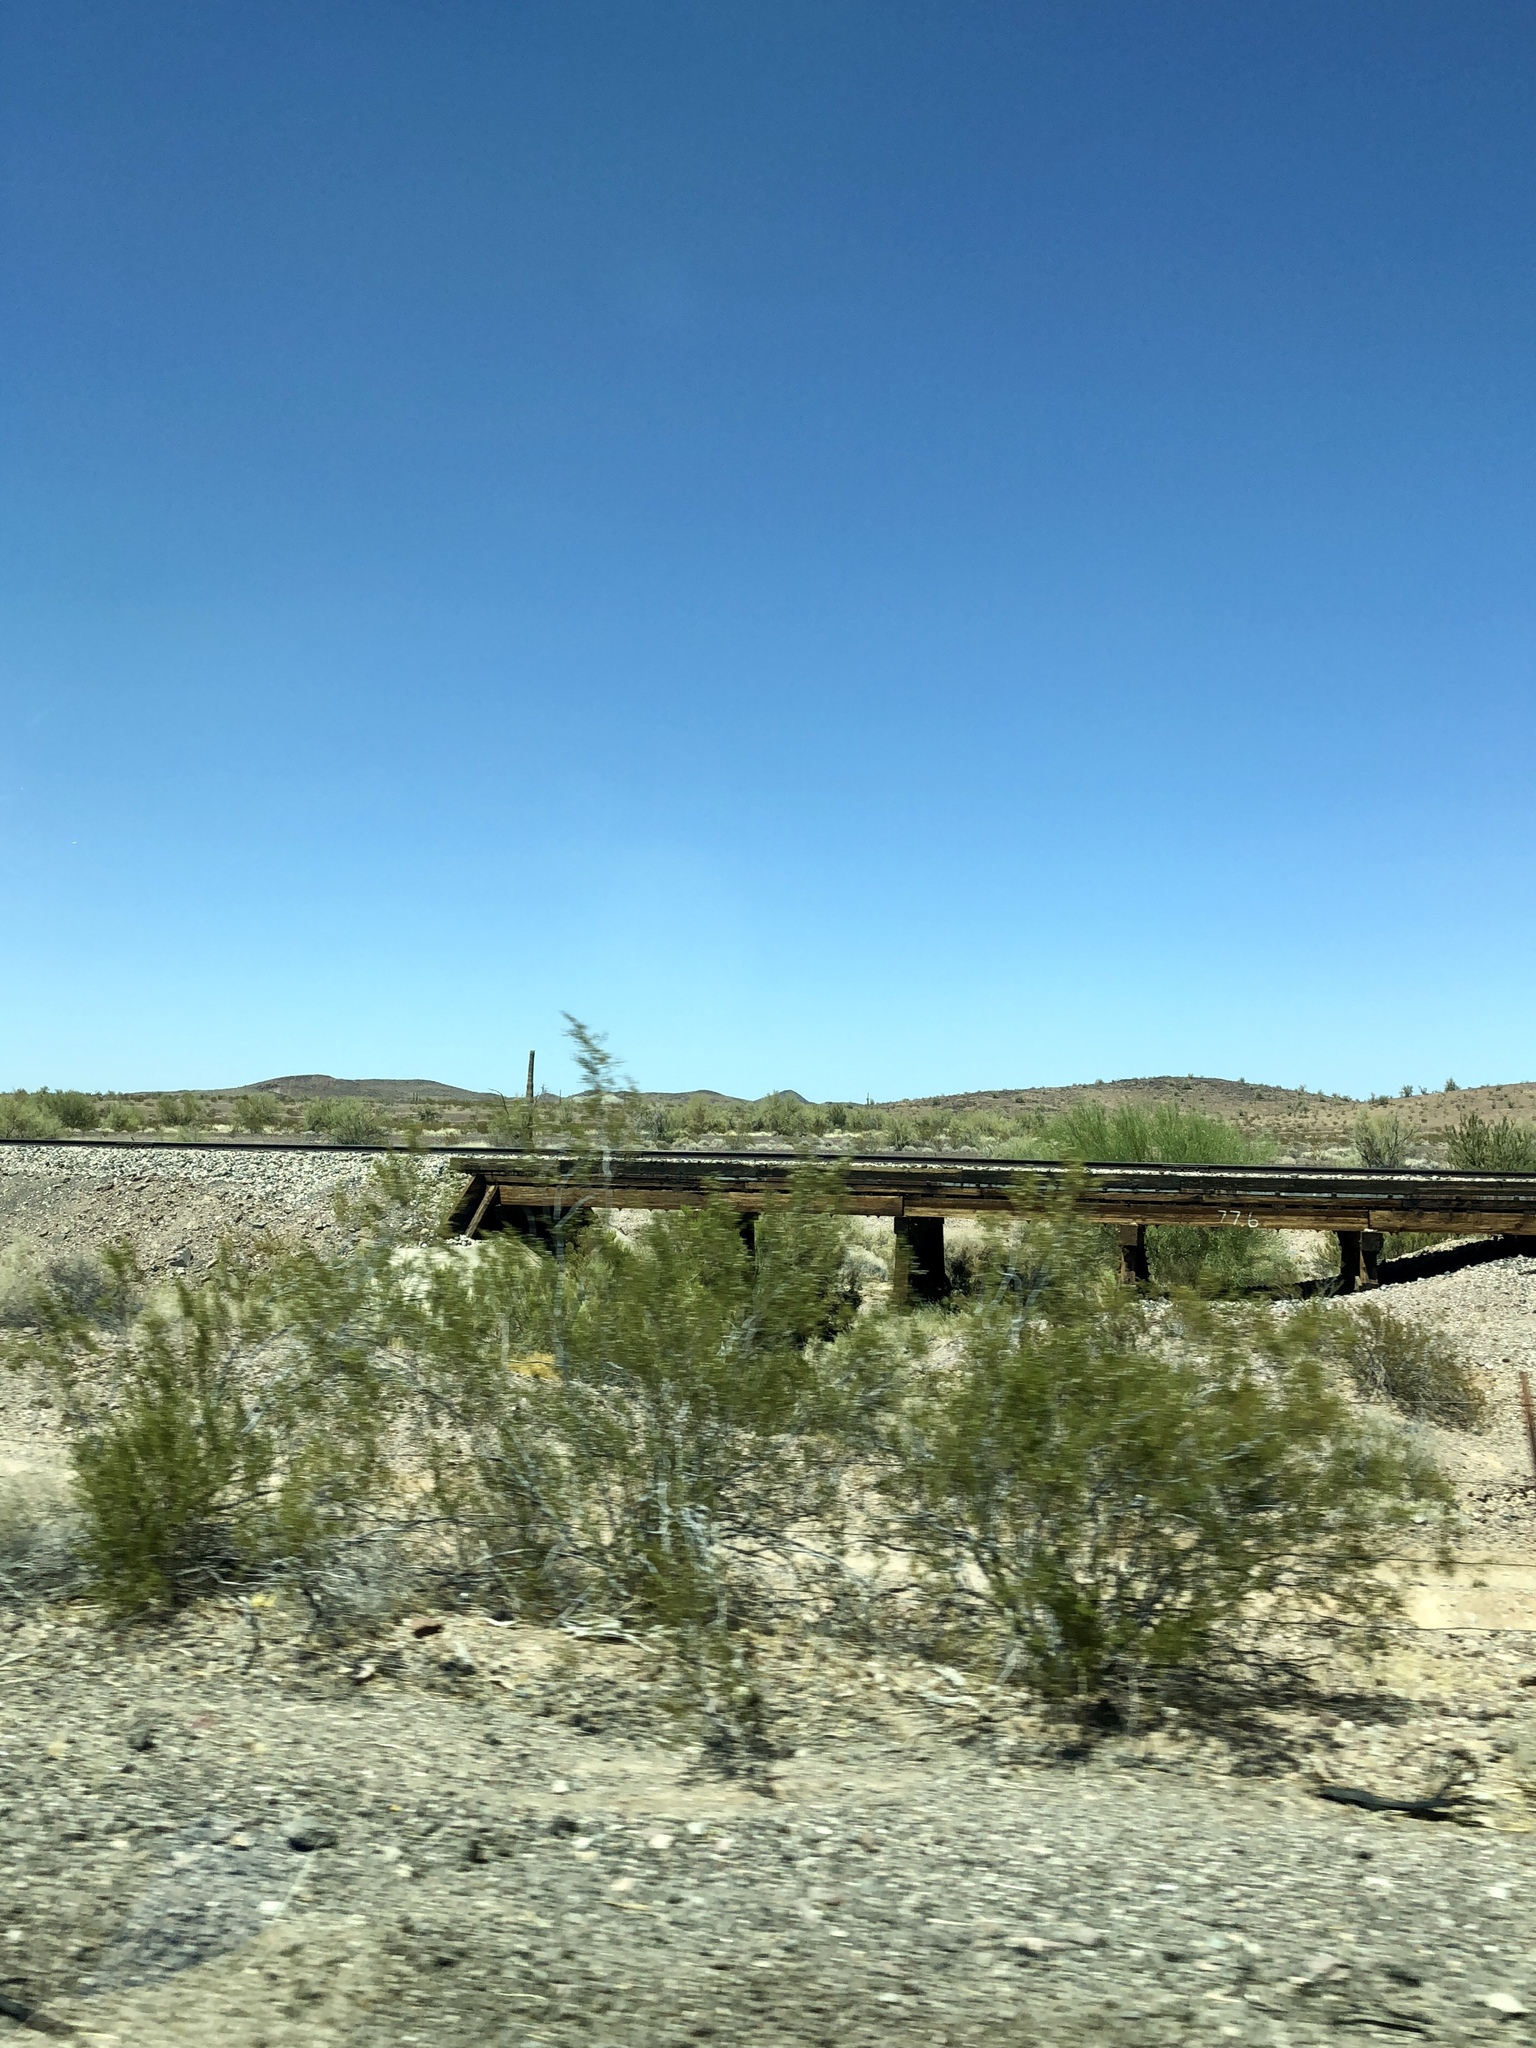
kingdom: Plantae
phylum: Tracheophyta
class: Magnoliopsida
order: Zygophyllales
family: Zygophyllaceae
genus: Larrea
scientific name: Larrea tridentata
